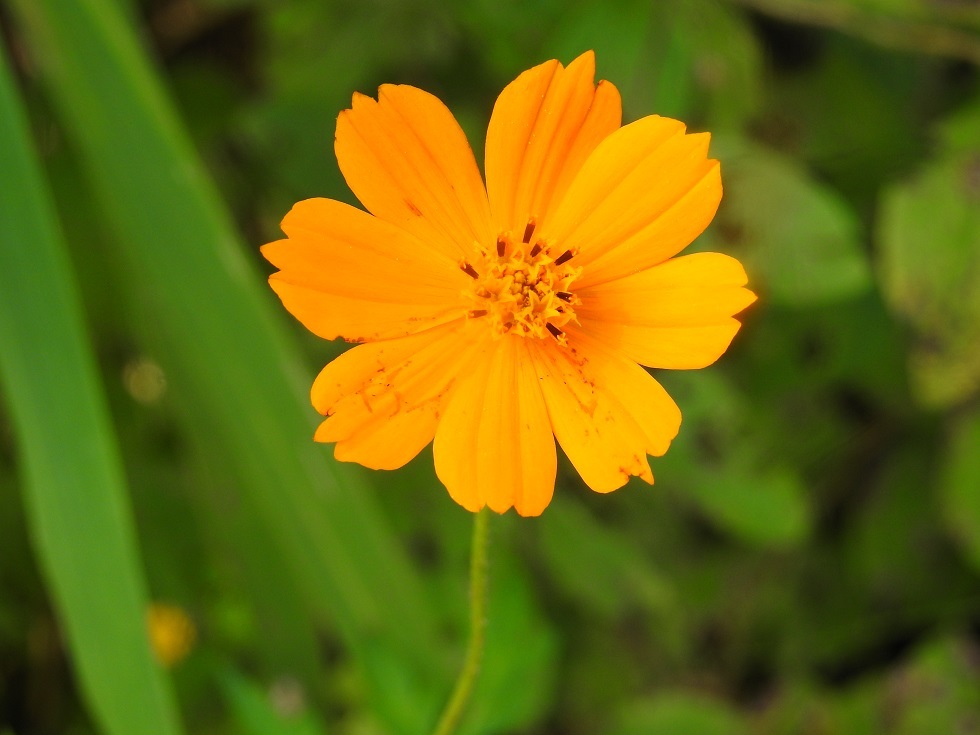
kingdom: Plantae
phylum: Tracheophyta
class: Magnoliopsida
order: Asterales
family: Asteraceae
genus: Cosmos
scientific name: Cosmos sulphureus
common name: Sulphur cosmos
